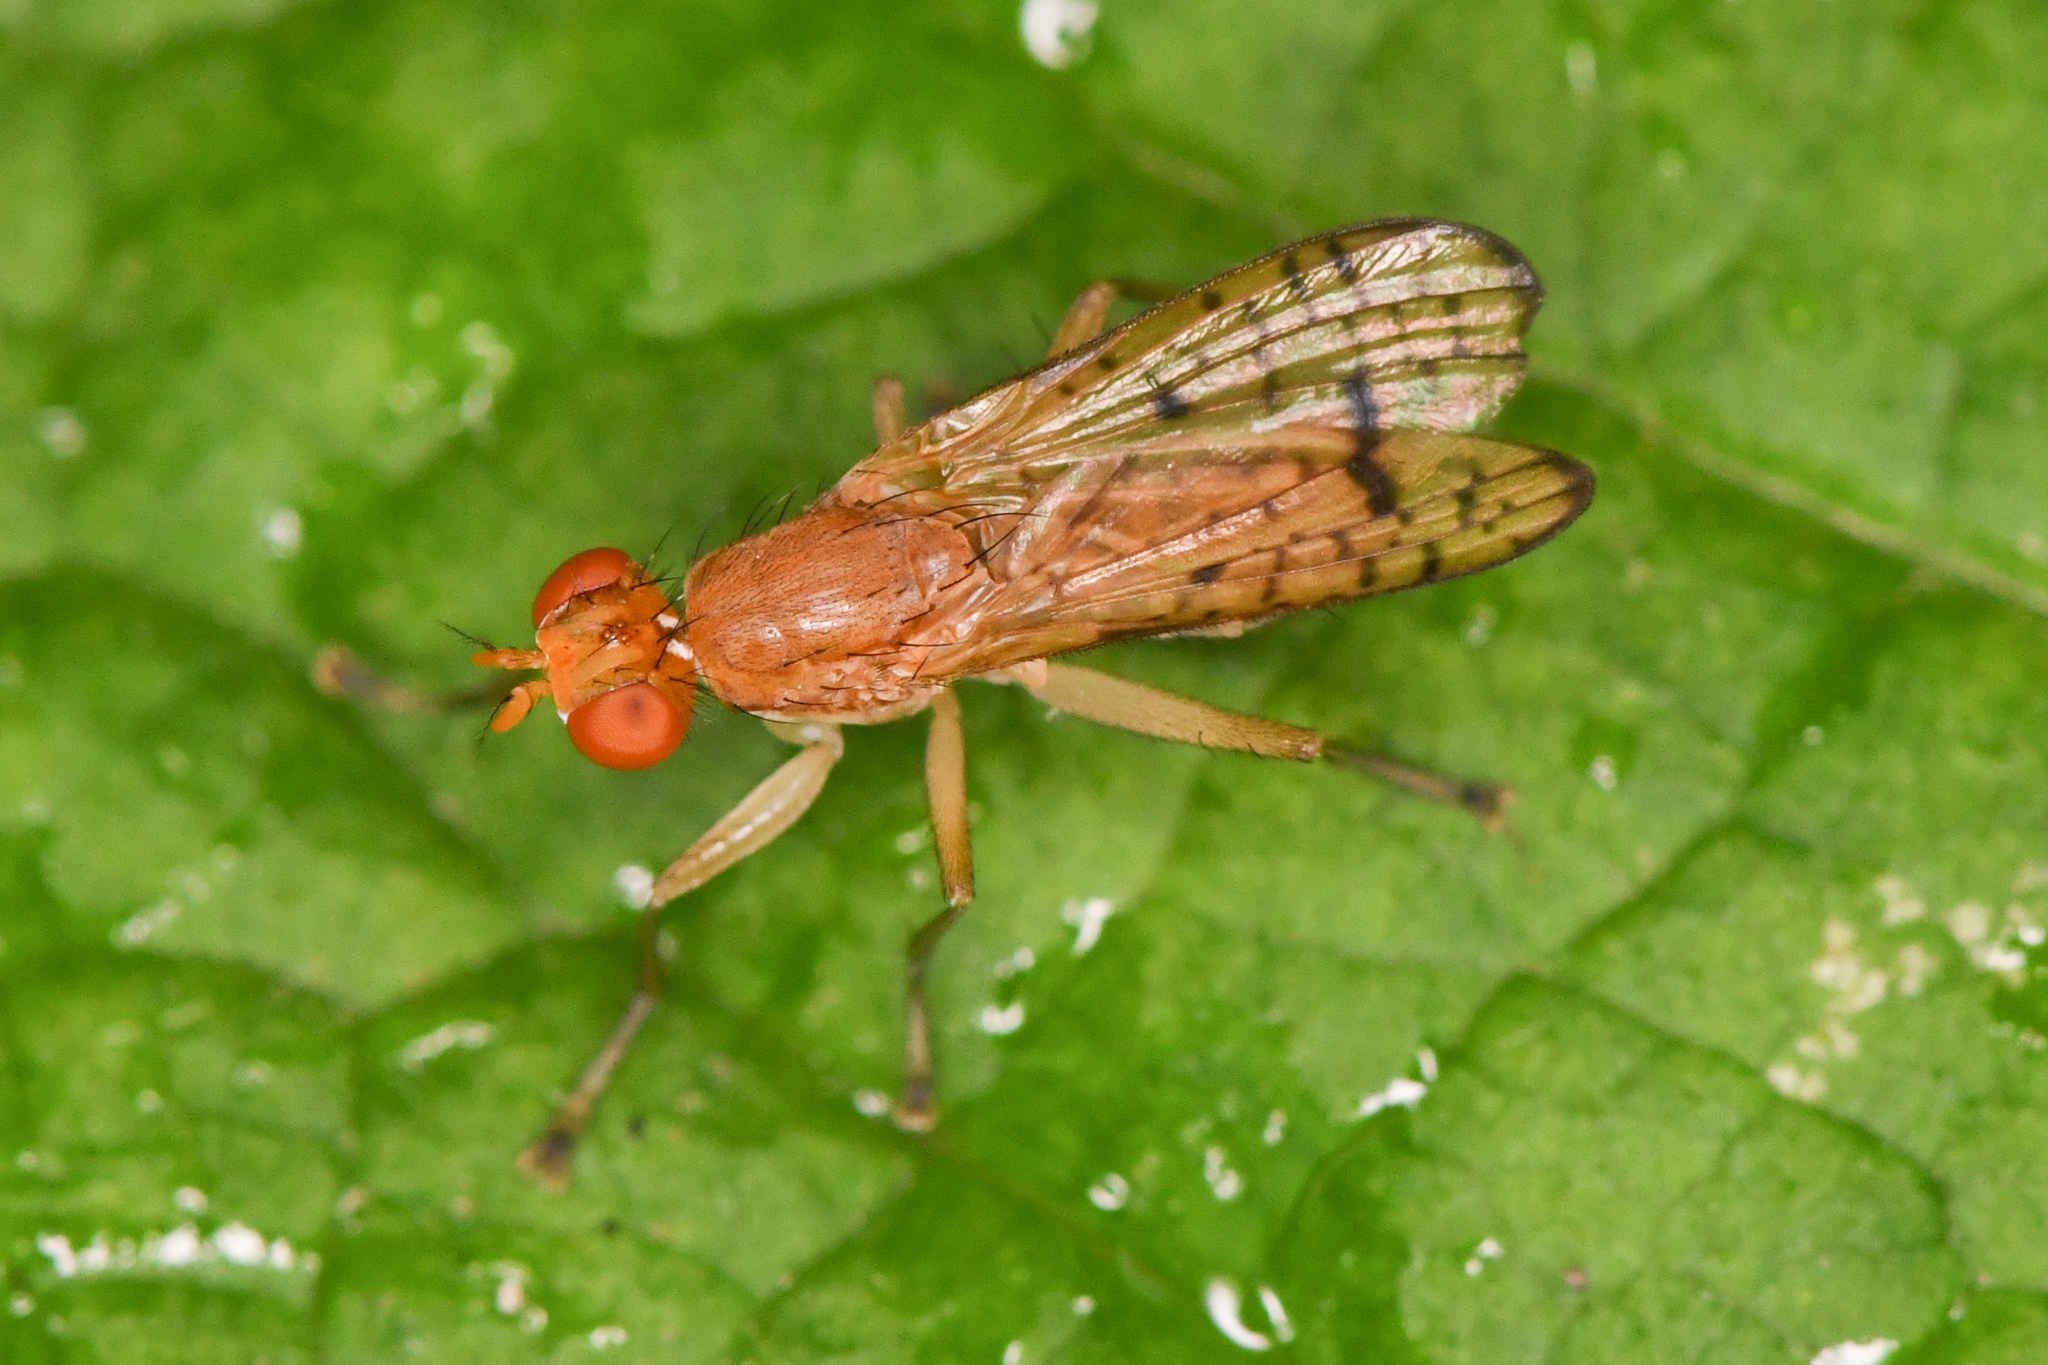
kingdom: Animalia
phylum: Arthropoda
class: Insecta
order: Diptera
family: Sciomyzidae
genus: Tetanocera
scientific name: Tetanocera valida
